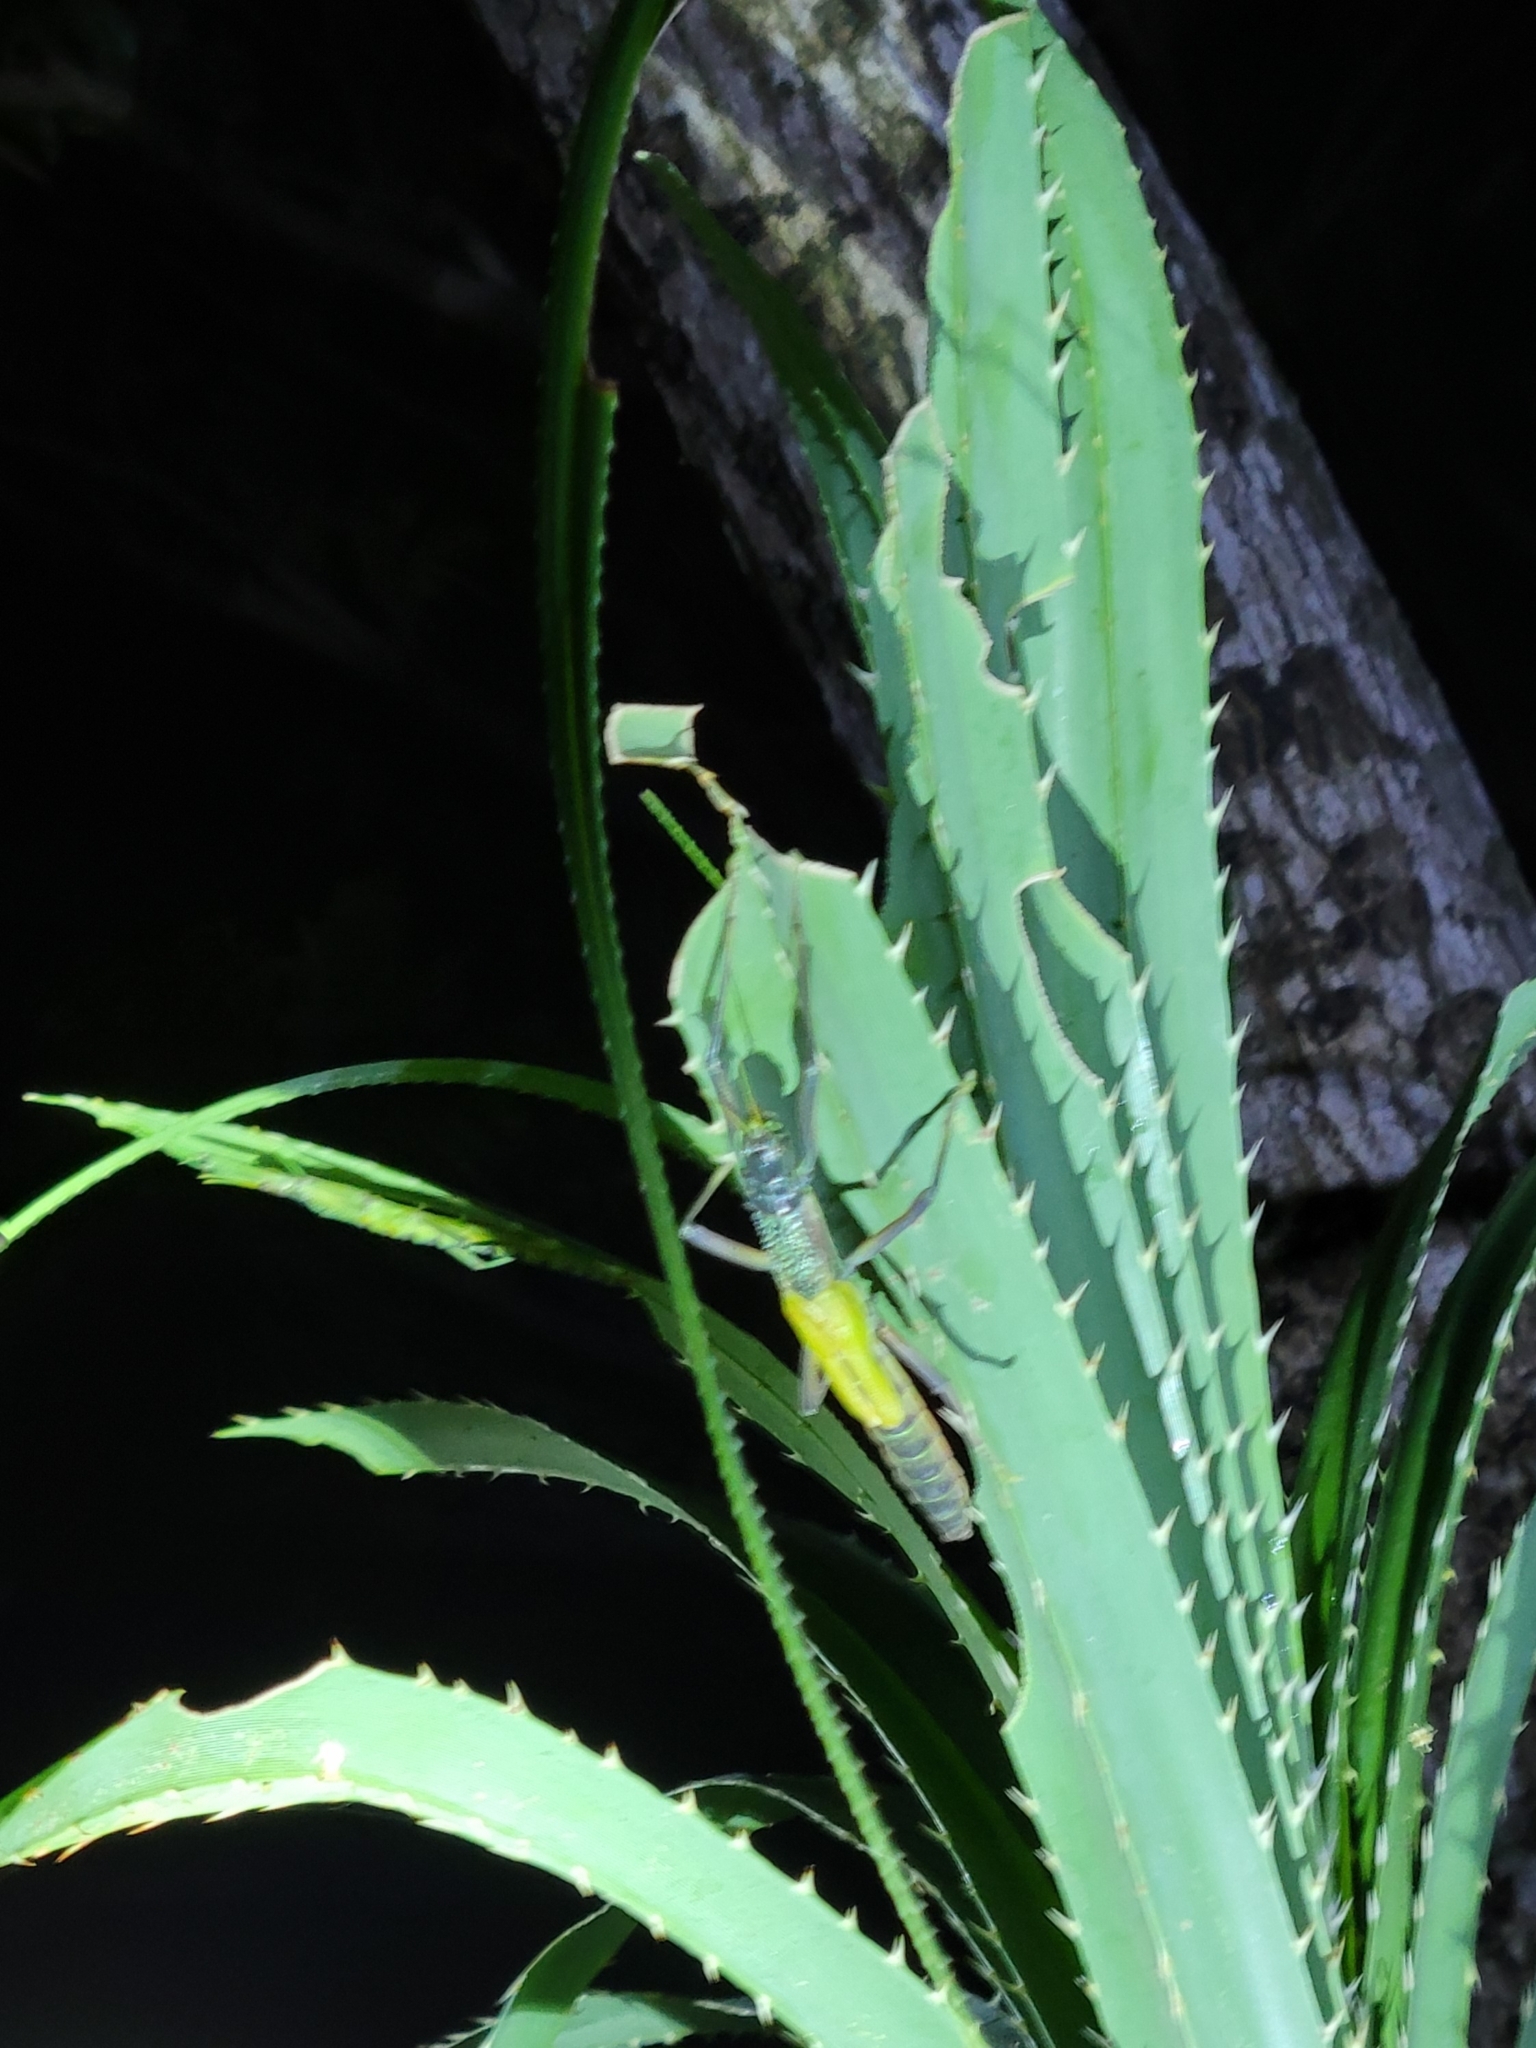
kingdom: Animalia
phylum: Arthropoda
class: Insecta
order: Phasmida
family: Phasmatidae
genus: Megacrania
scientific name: Megacrania tsudai
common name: Tsuda's giant stick-insect
